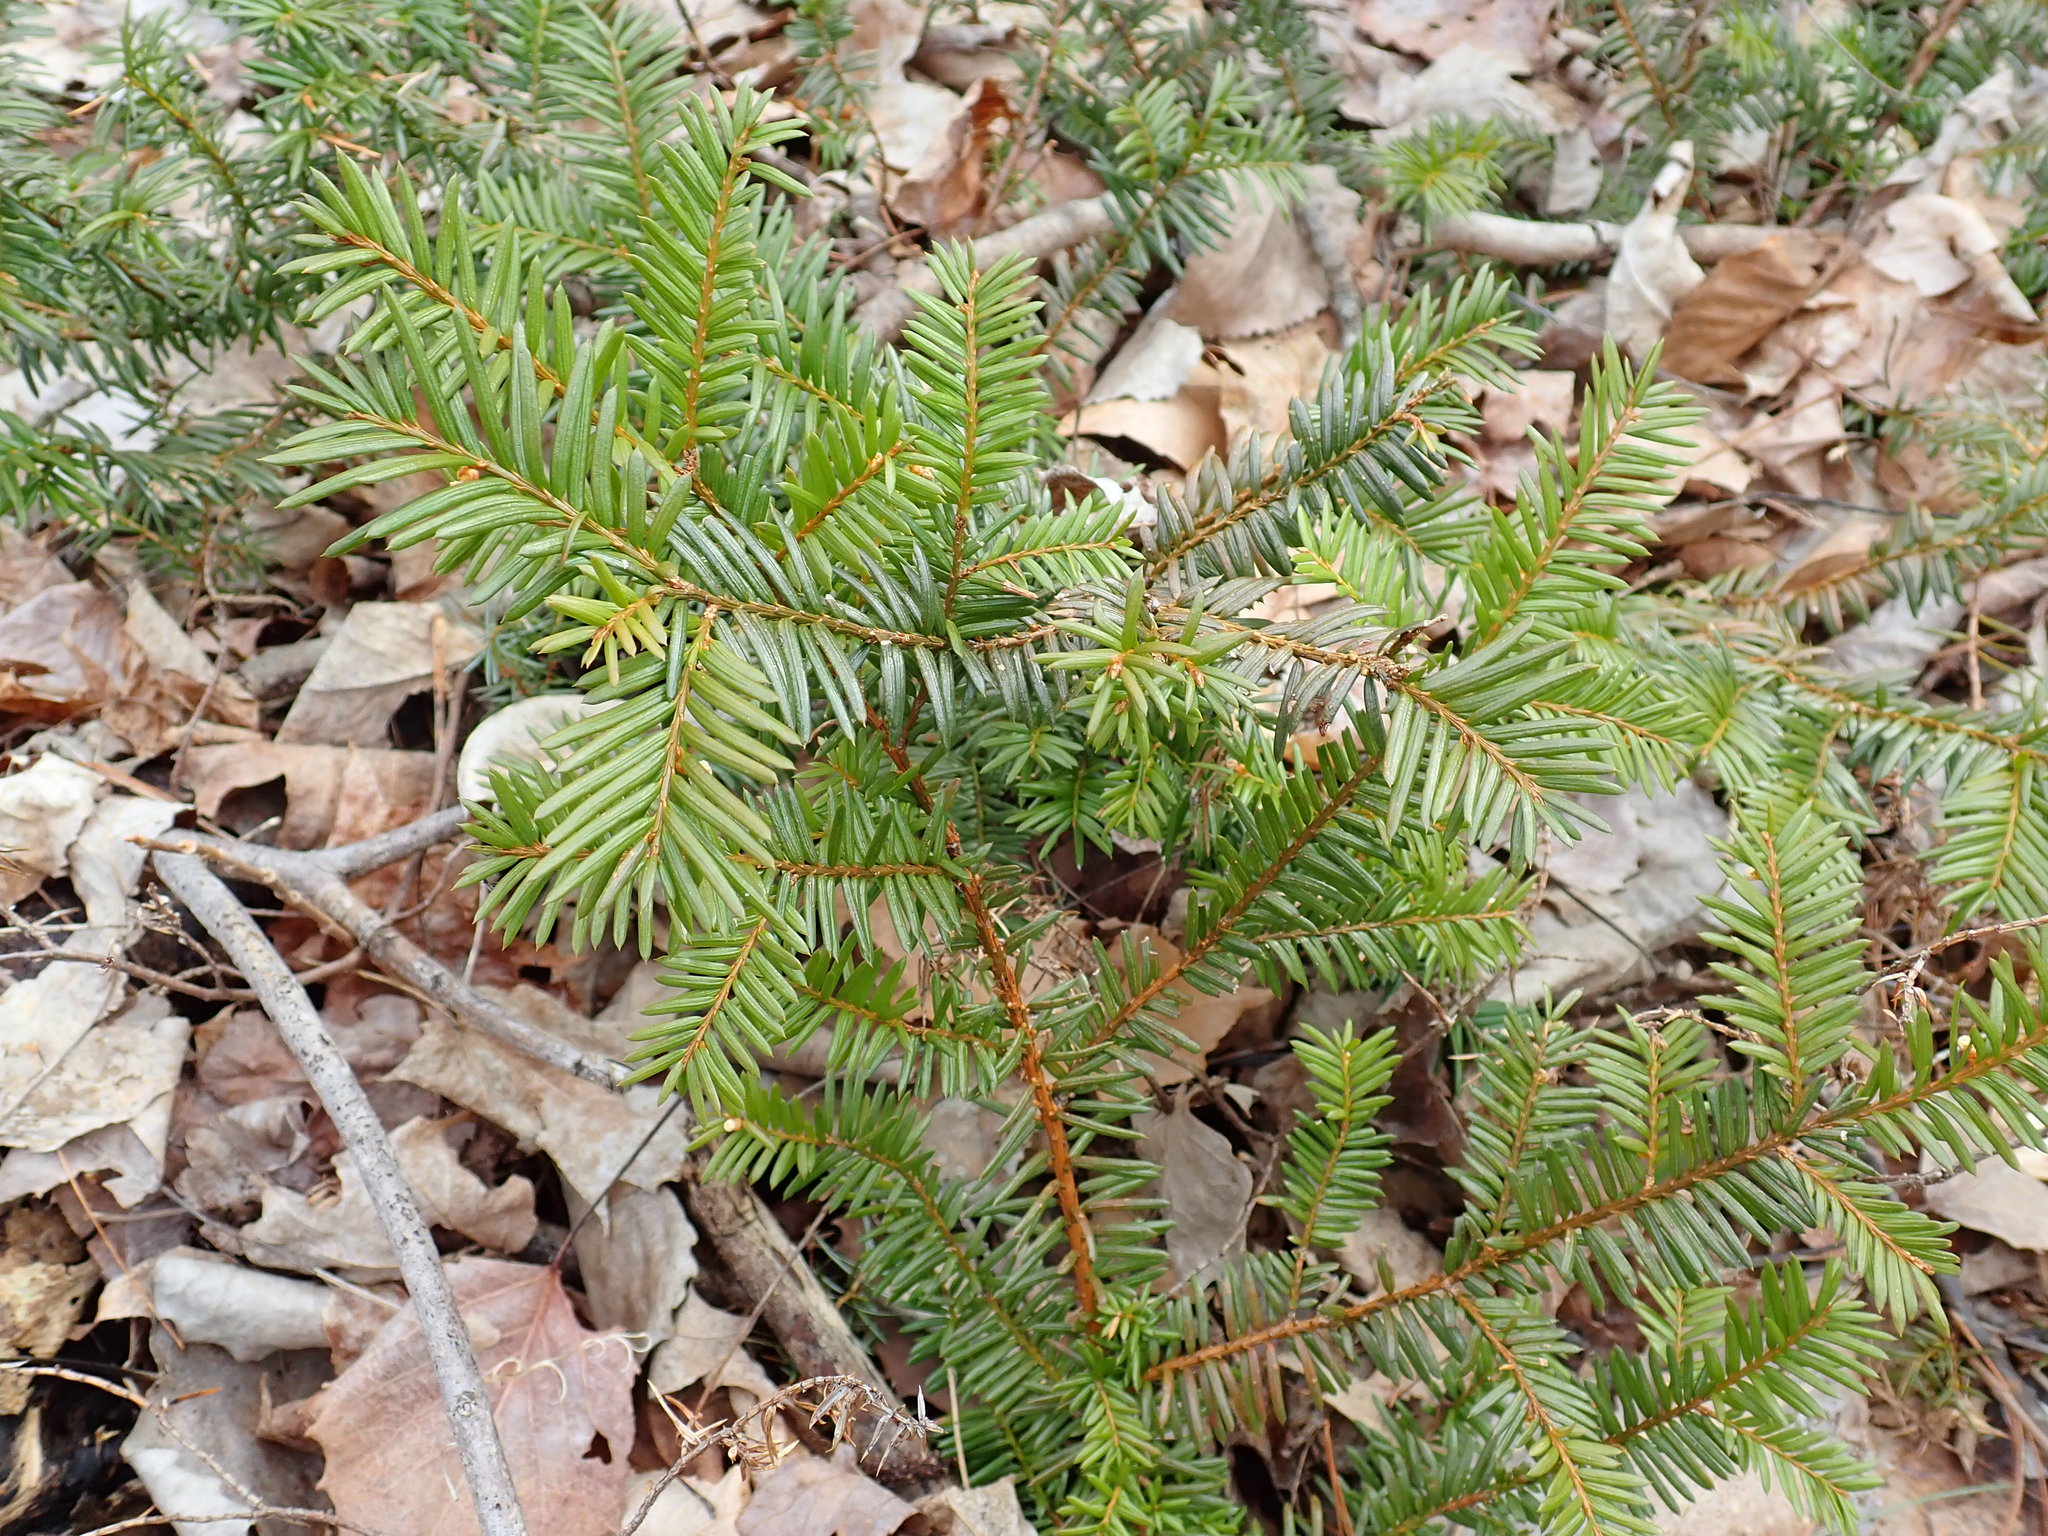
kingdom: Plantae
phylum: Tracheophyta
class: Pinopsida
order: Pinales
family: Taxaceae
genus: Taxus
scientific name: Taxus canadensis
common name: American yew
